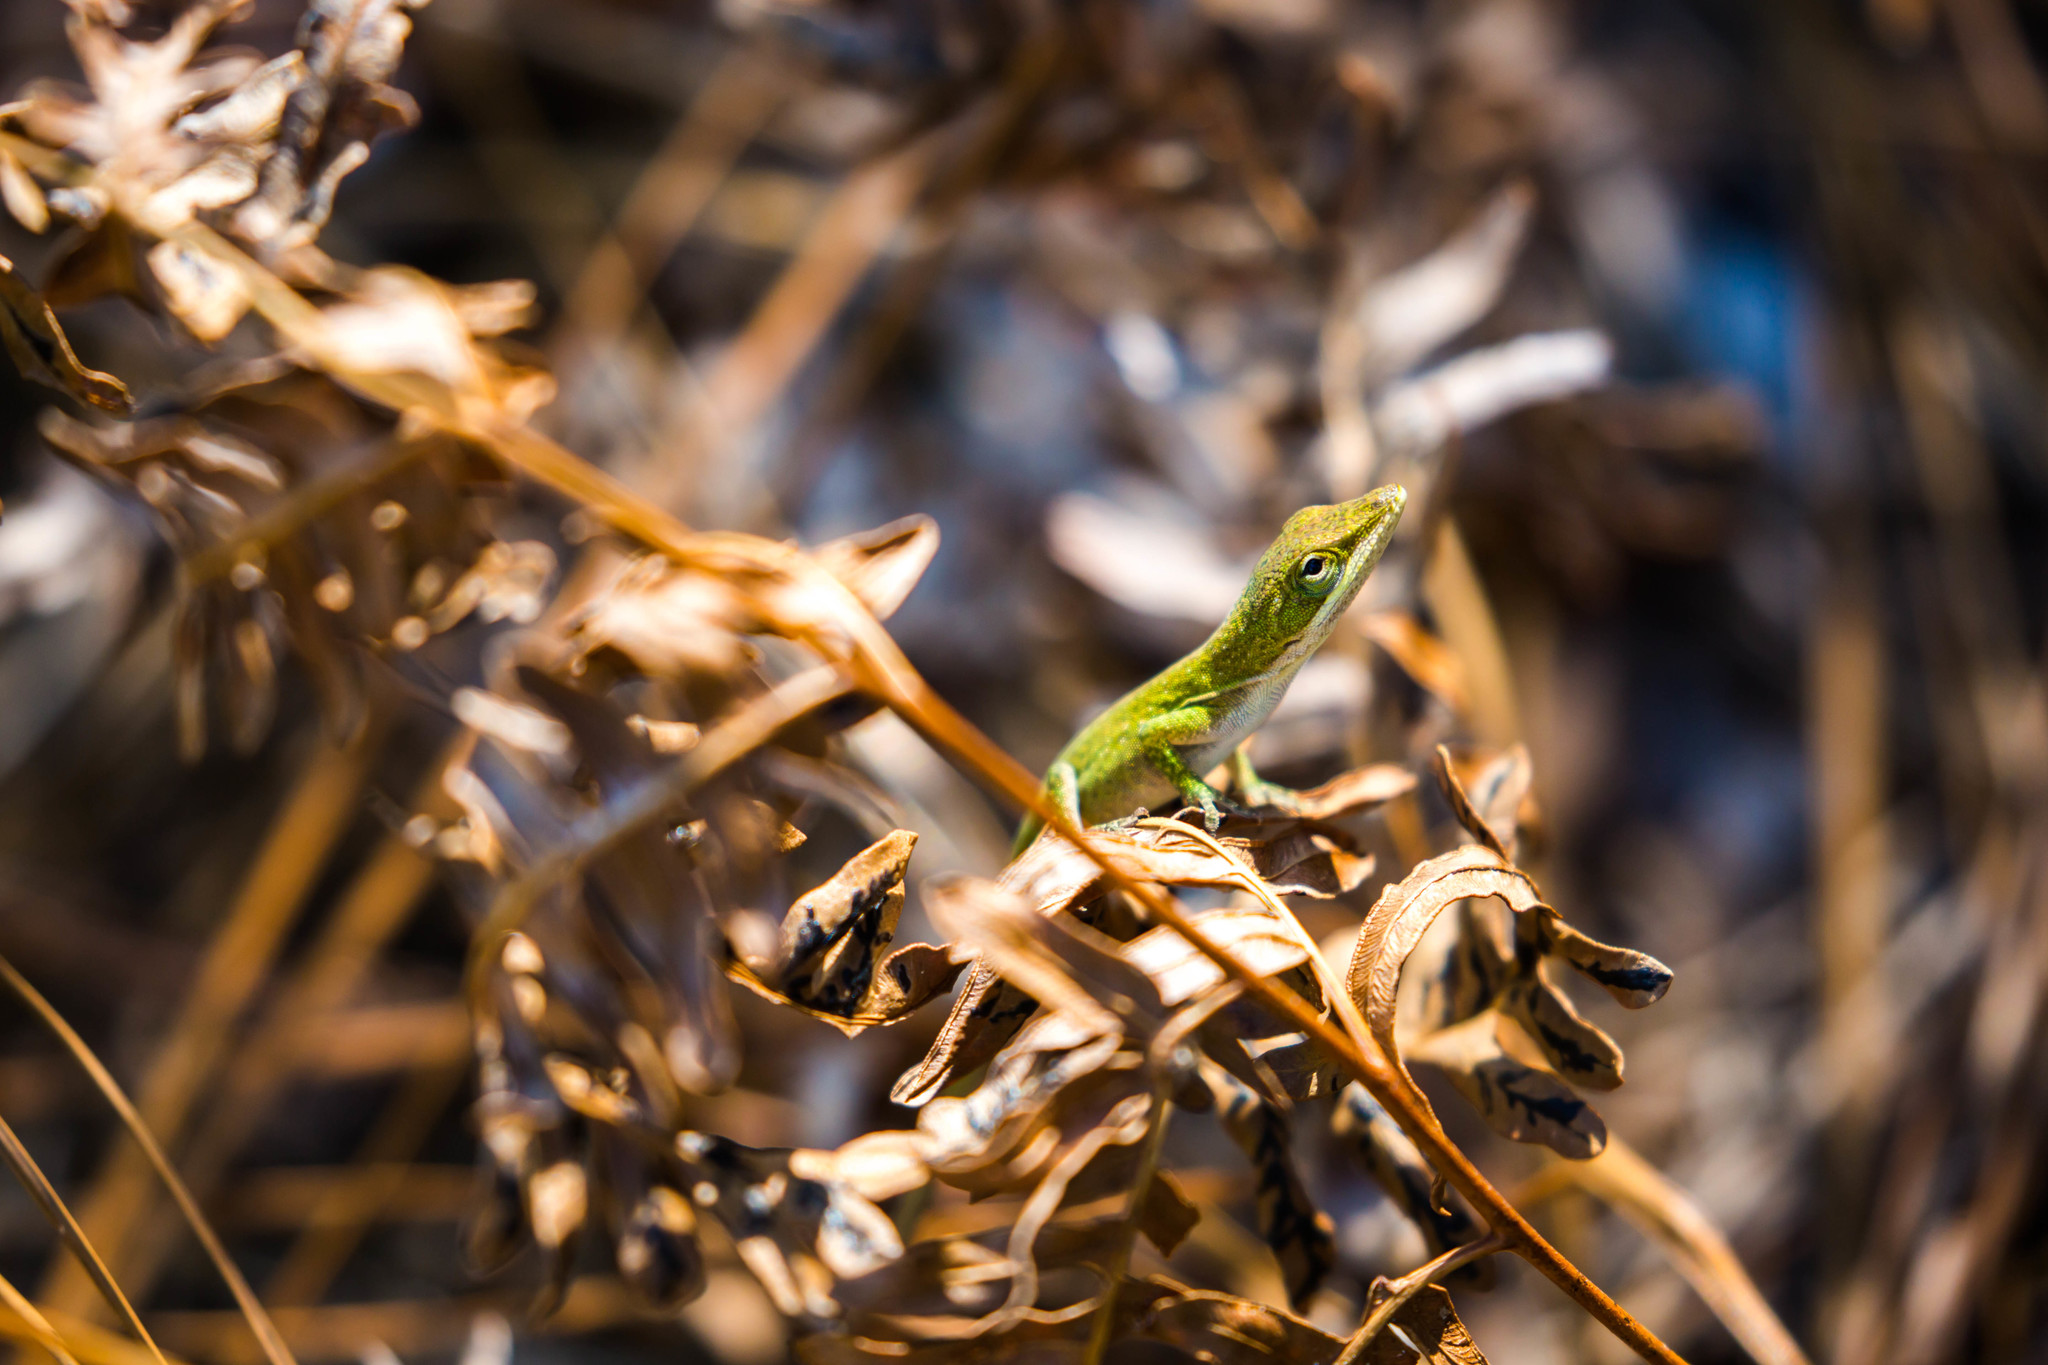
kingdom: Animalia
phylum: Chordata
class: Squamata
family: Dactyloidae
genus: Anolis
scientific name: Anolis carolinensis
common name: Green anole
